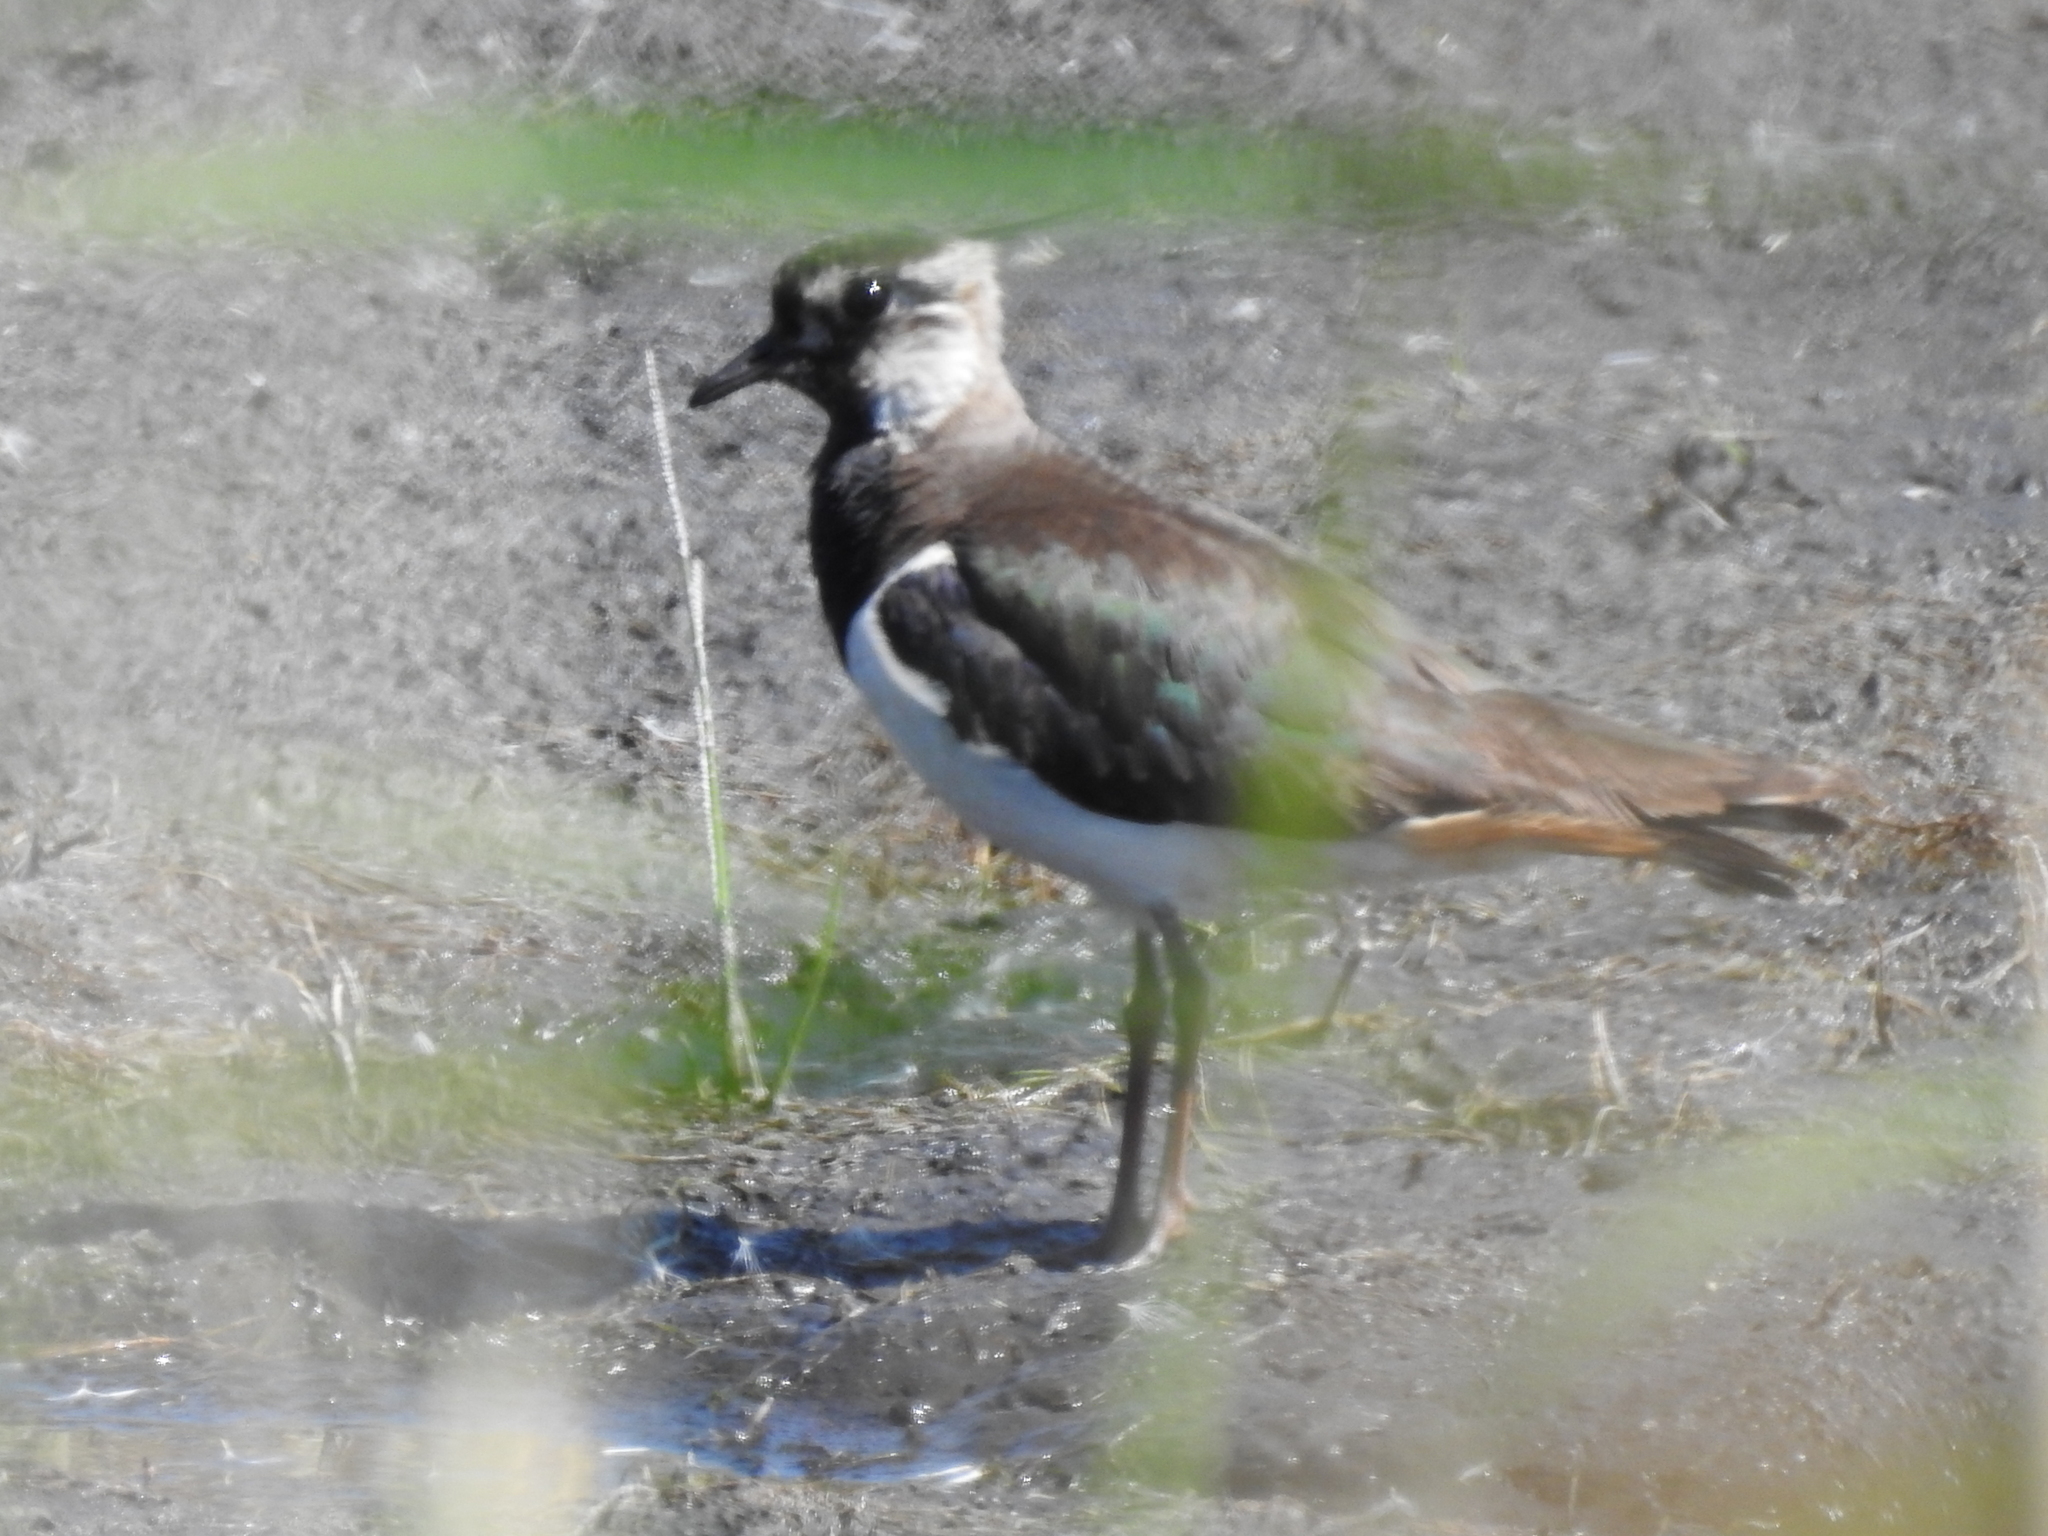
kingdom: Animalia
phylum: Chordata
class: Aves
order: Charadriiformes
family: Charadriidae
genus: Vanellus
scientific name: Vanellus vanellus
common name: Northern lapwing
